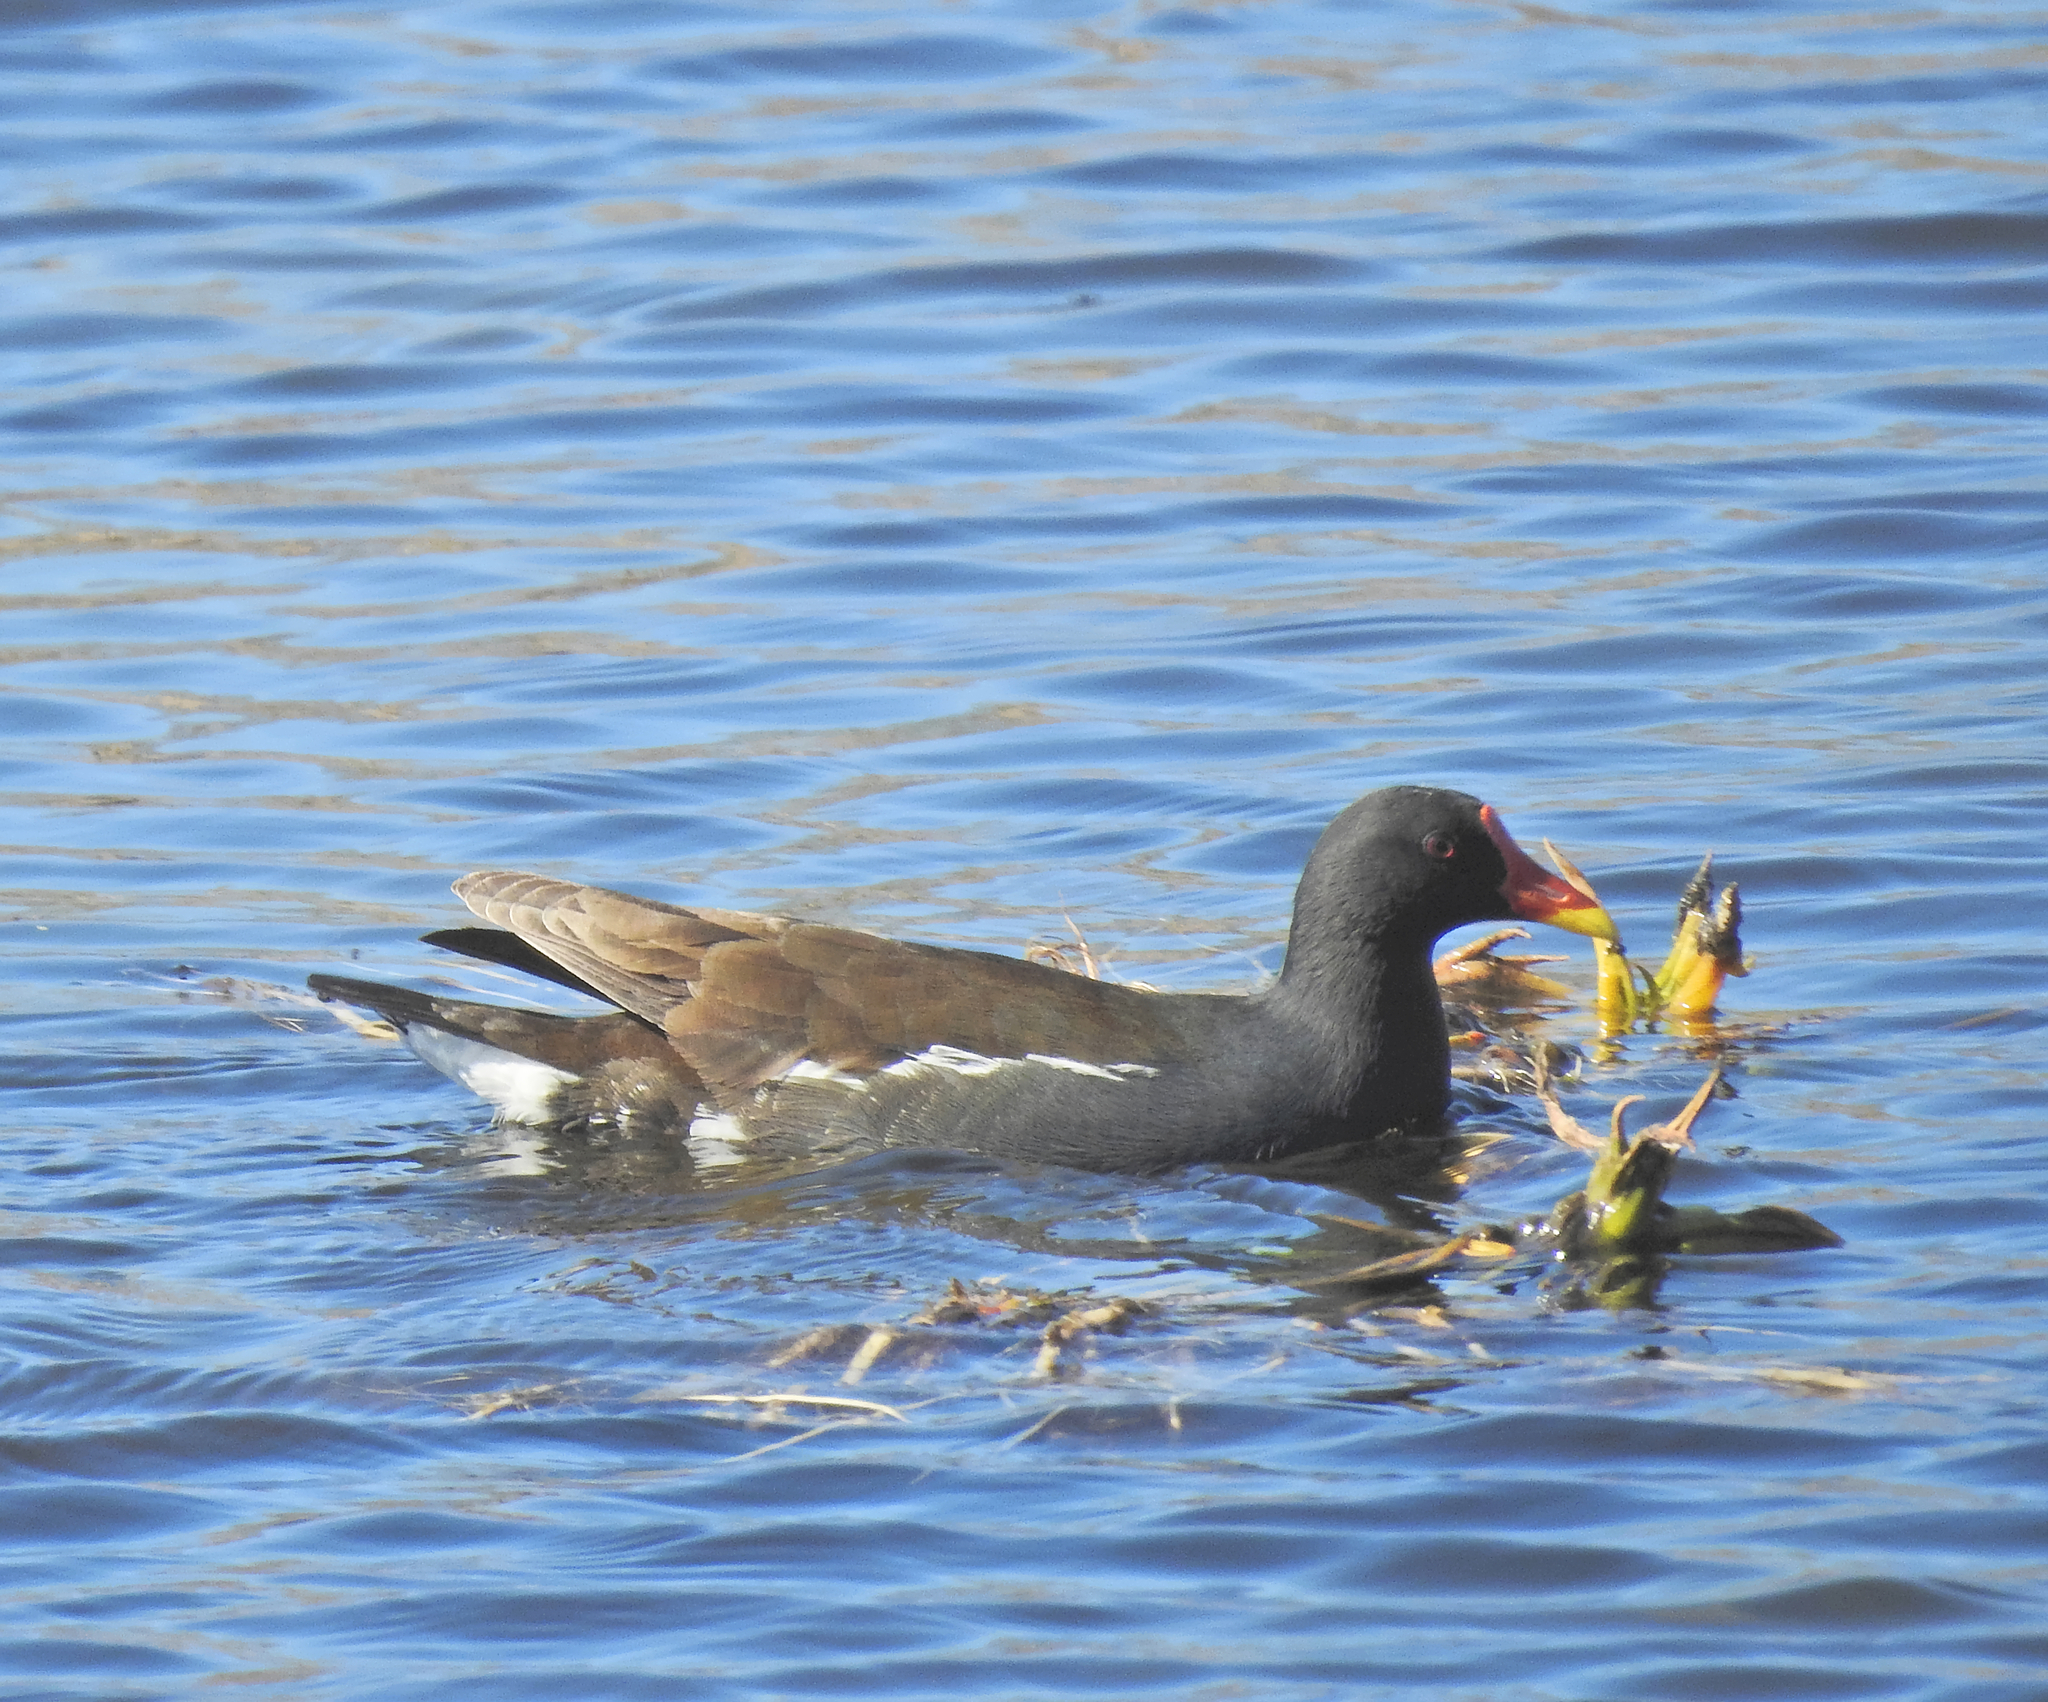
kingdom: Animalia
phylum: Chordata
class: Aves
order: Gruiformes
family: Rallidae
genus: Gallinula
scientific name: Gallinula chloropus
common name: Common moorhen
